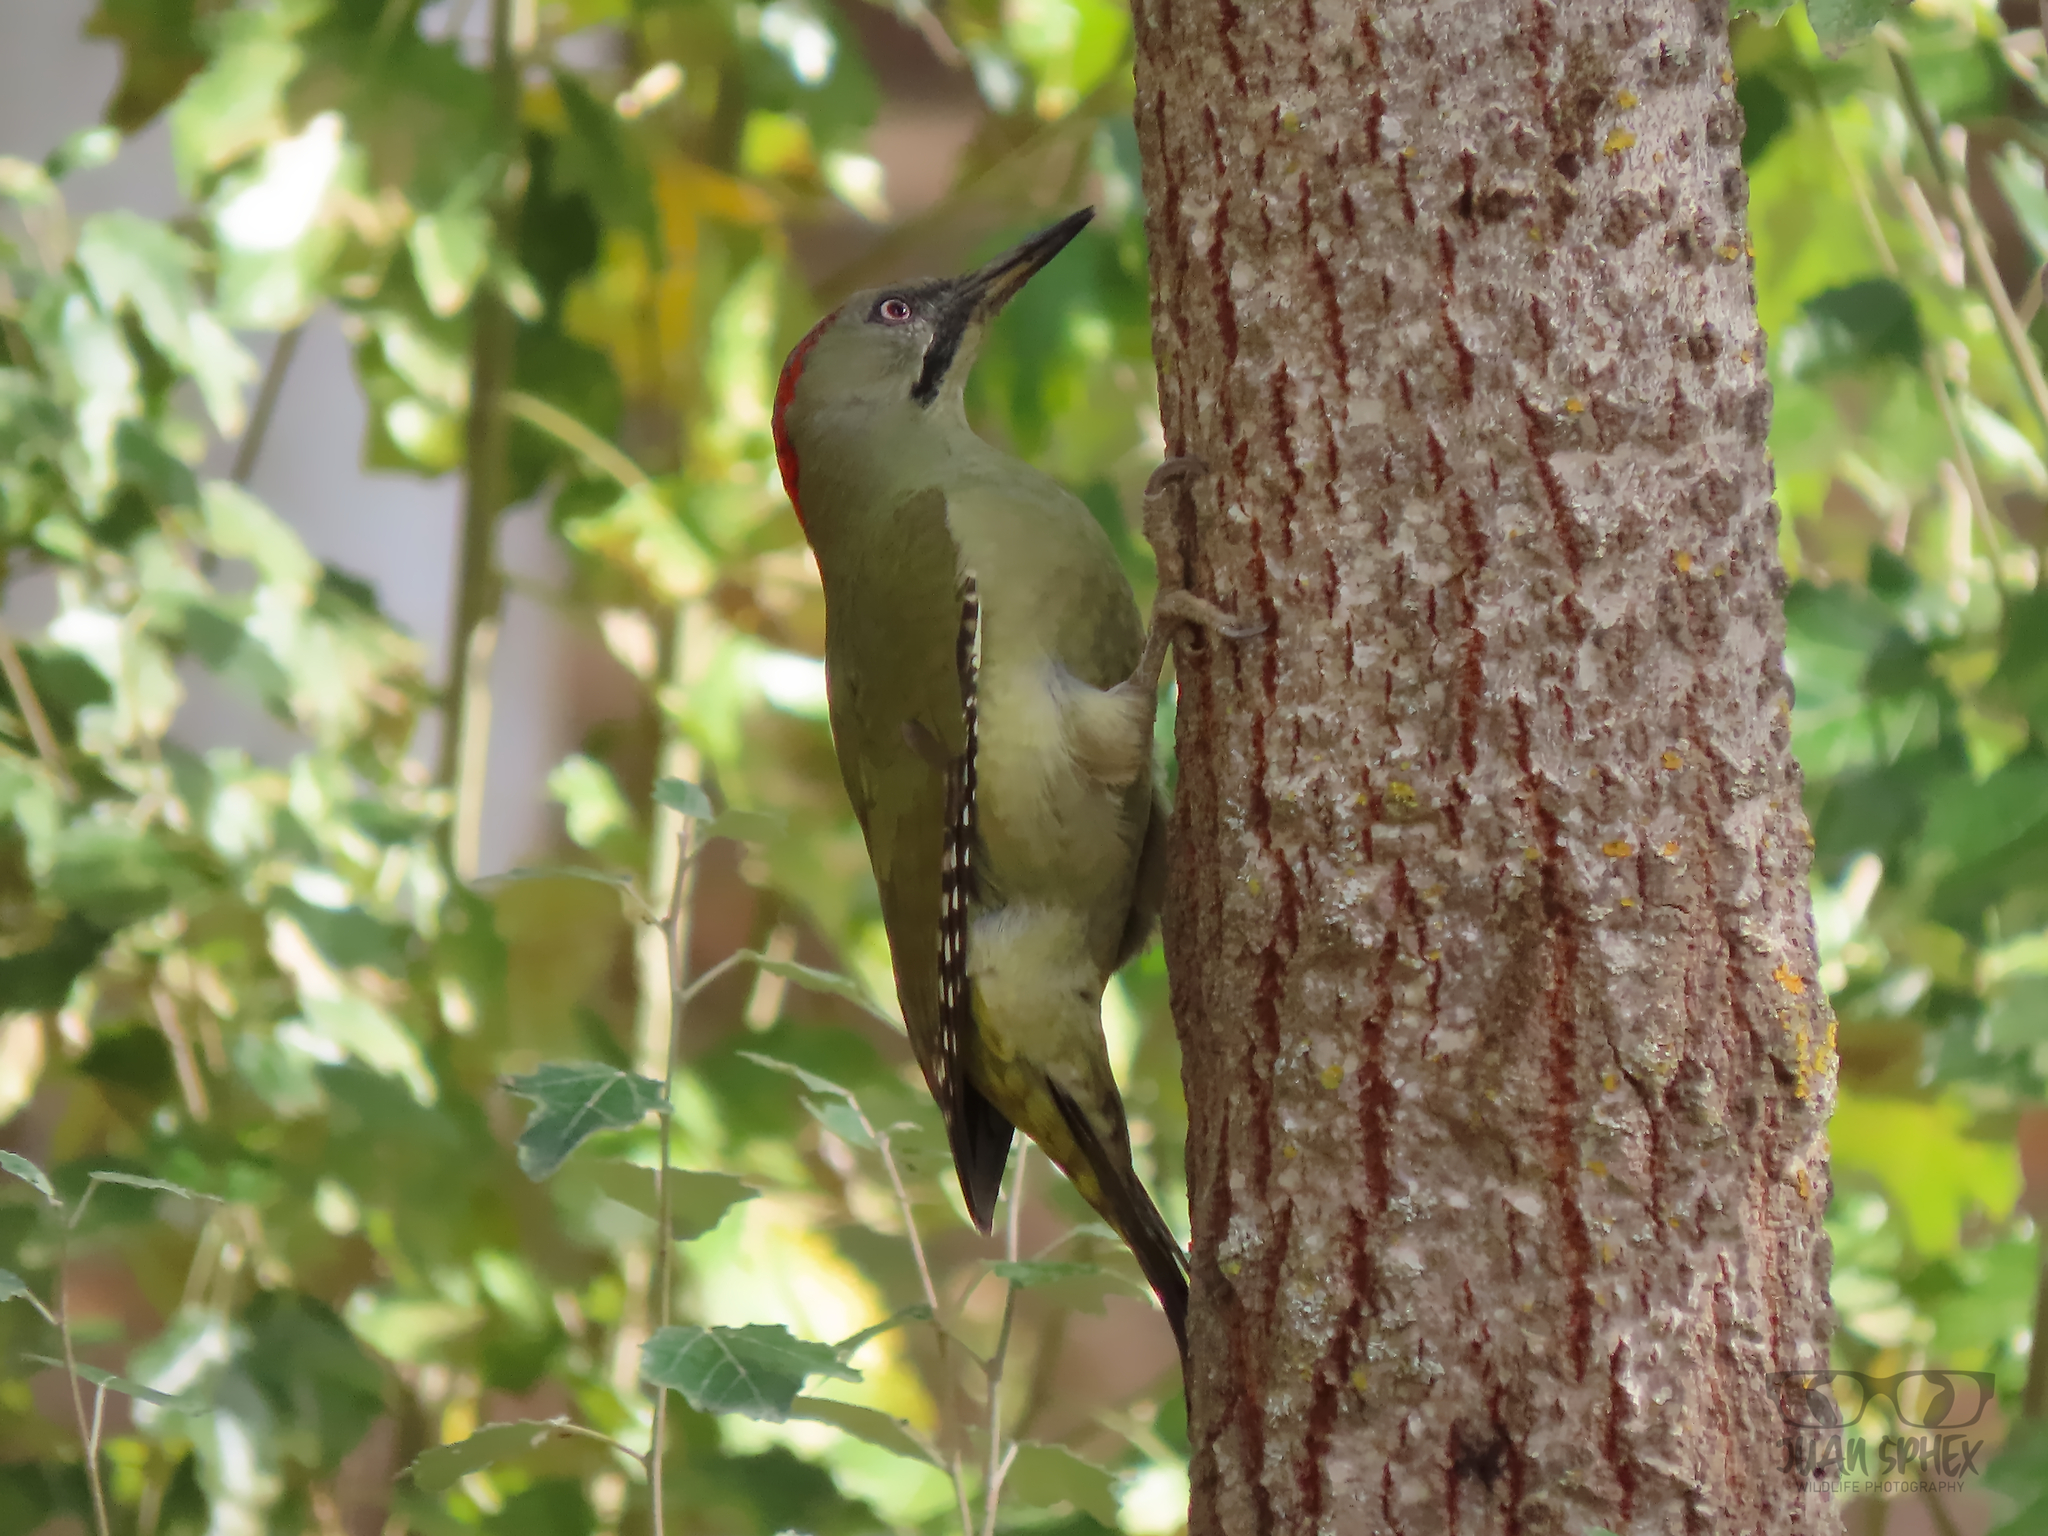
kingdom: Animalia
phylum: Chordata
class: Aves
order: Piciformes
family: Picidae
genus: Picus
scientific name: Picus sharpei
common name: Iberian green woodpecker
